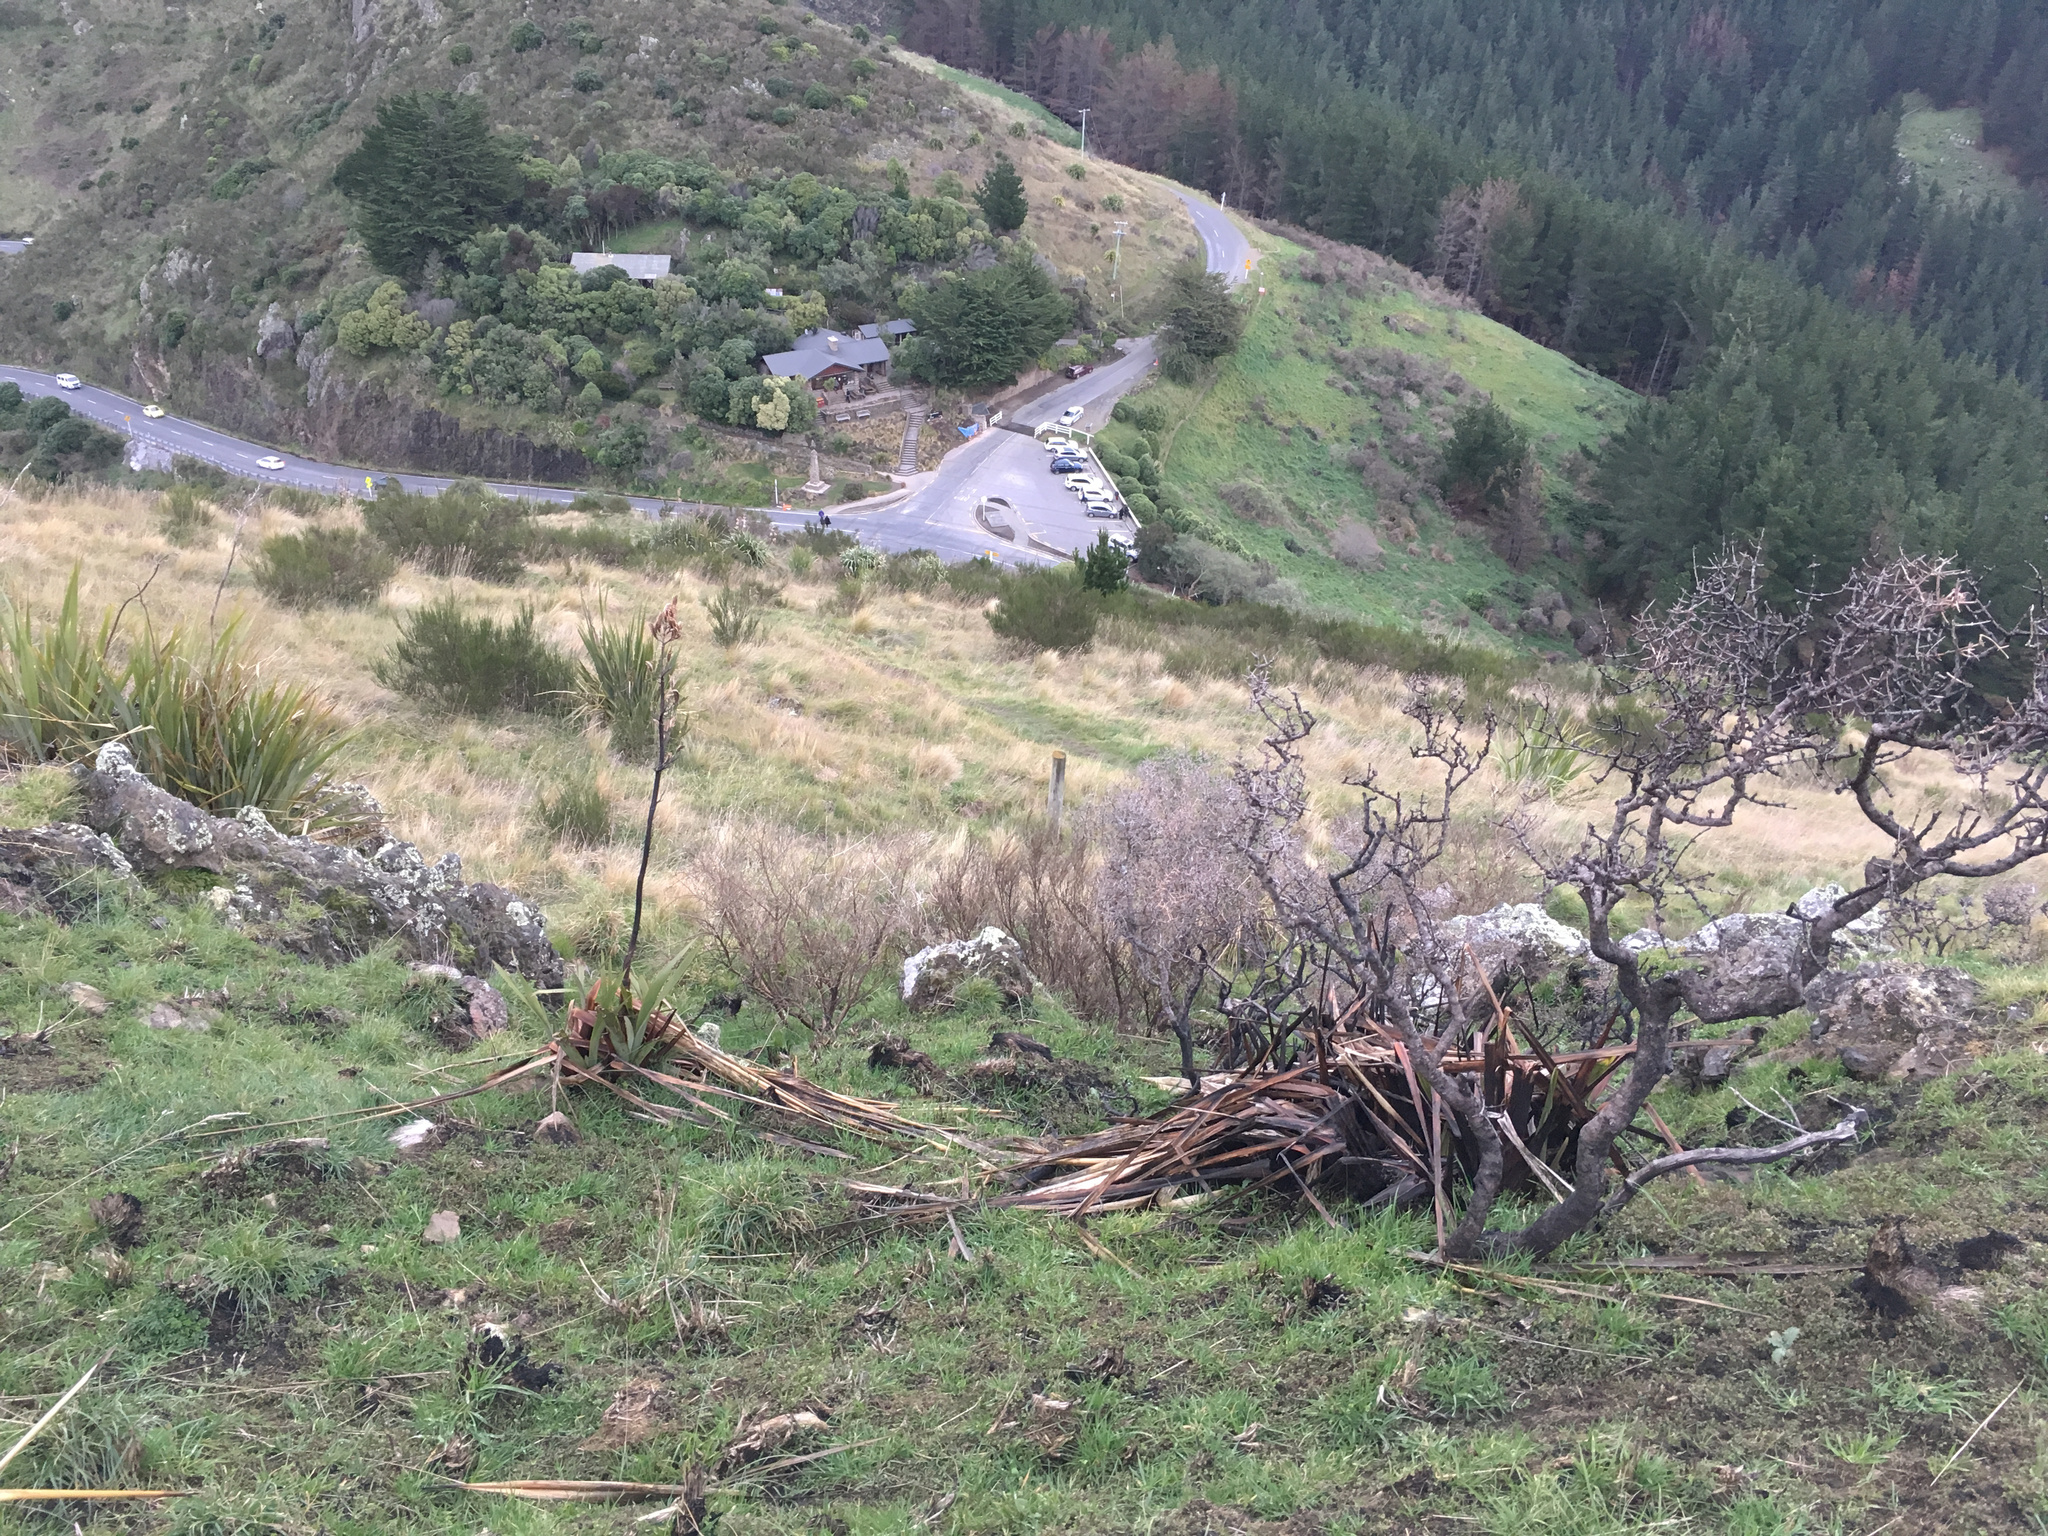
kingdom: Plantae
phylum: Tracheophyta
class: Liliopsida
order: Asparagales
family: Asphodelaceae
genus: Phormium
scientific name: Phormium tenax
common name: New zealand flax
